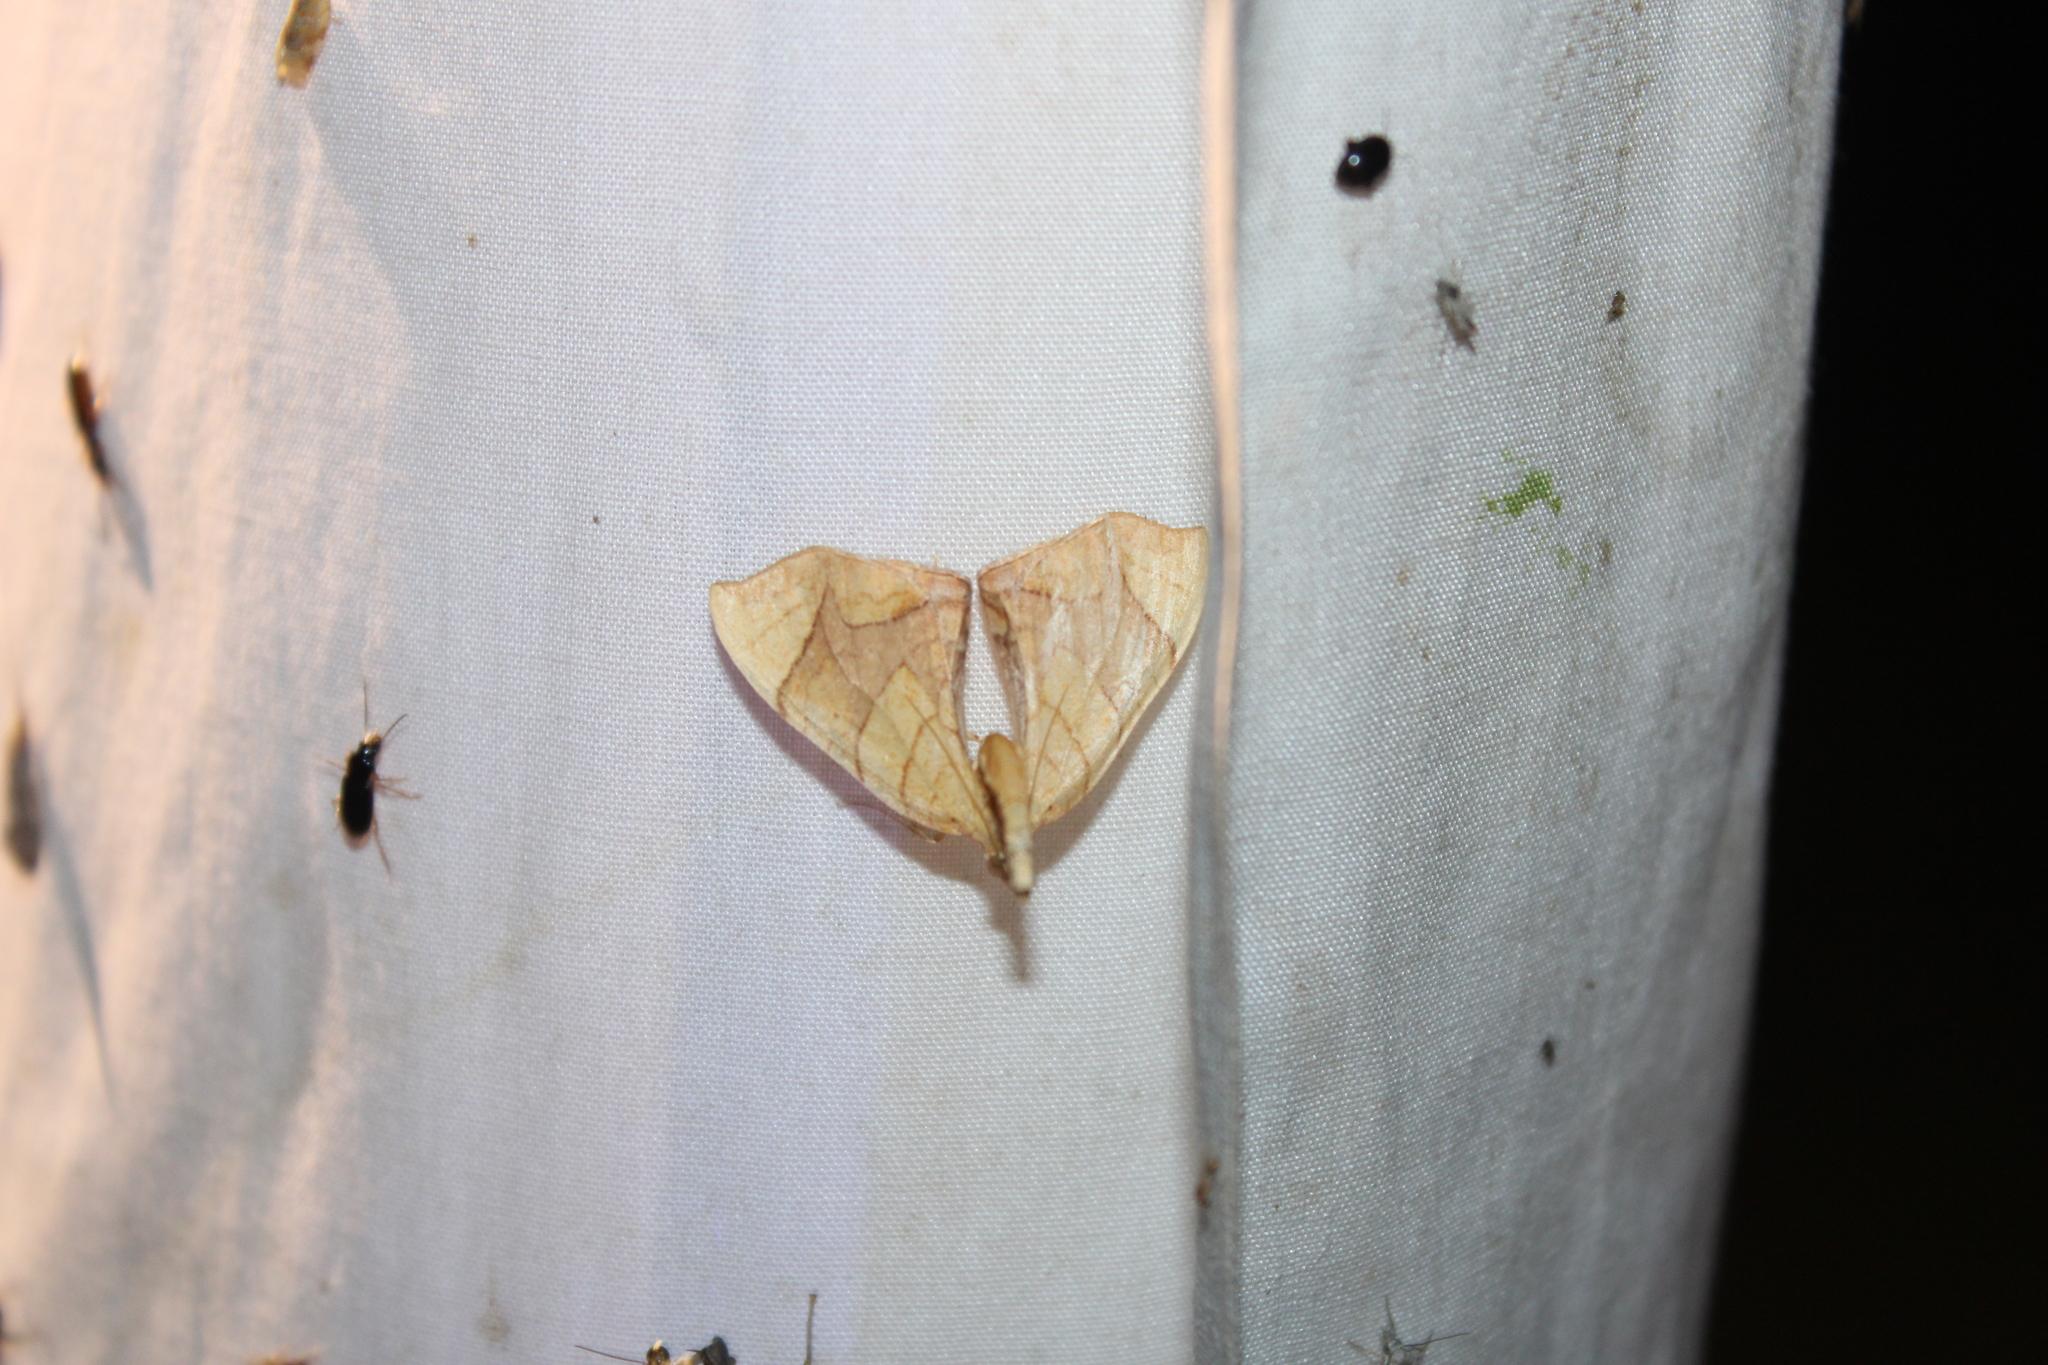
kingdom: Animalia
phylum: Arthropoda
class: Insecta
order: Lepidoptera
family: Geometridae
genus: Eulithis
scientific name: Eulithis
